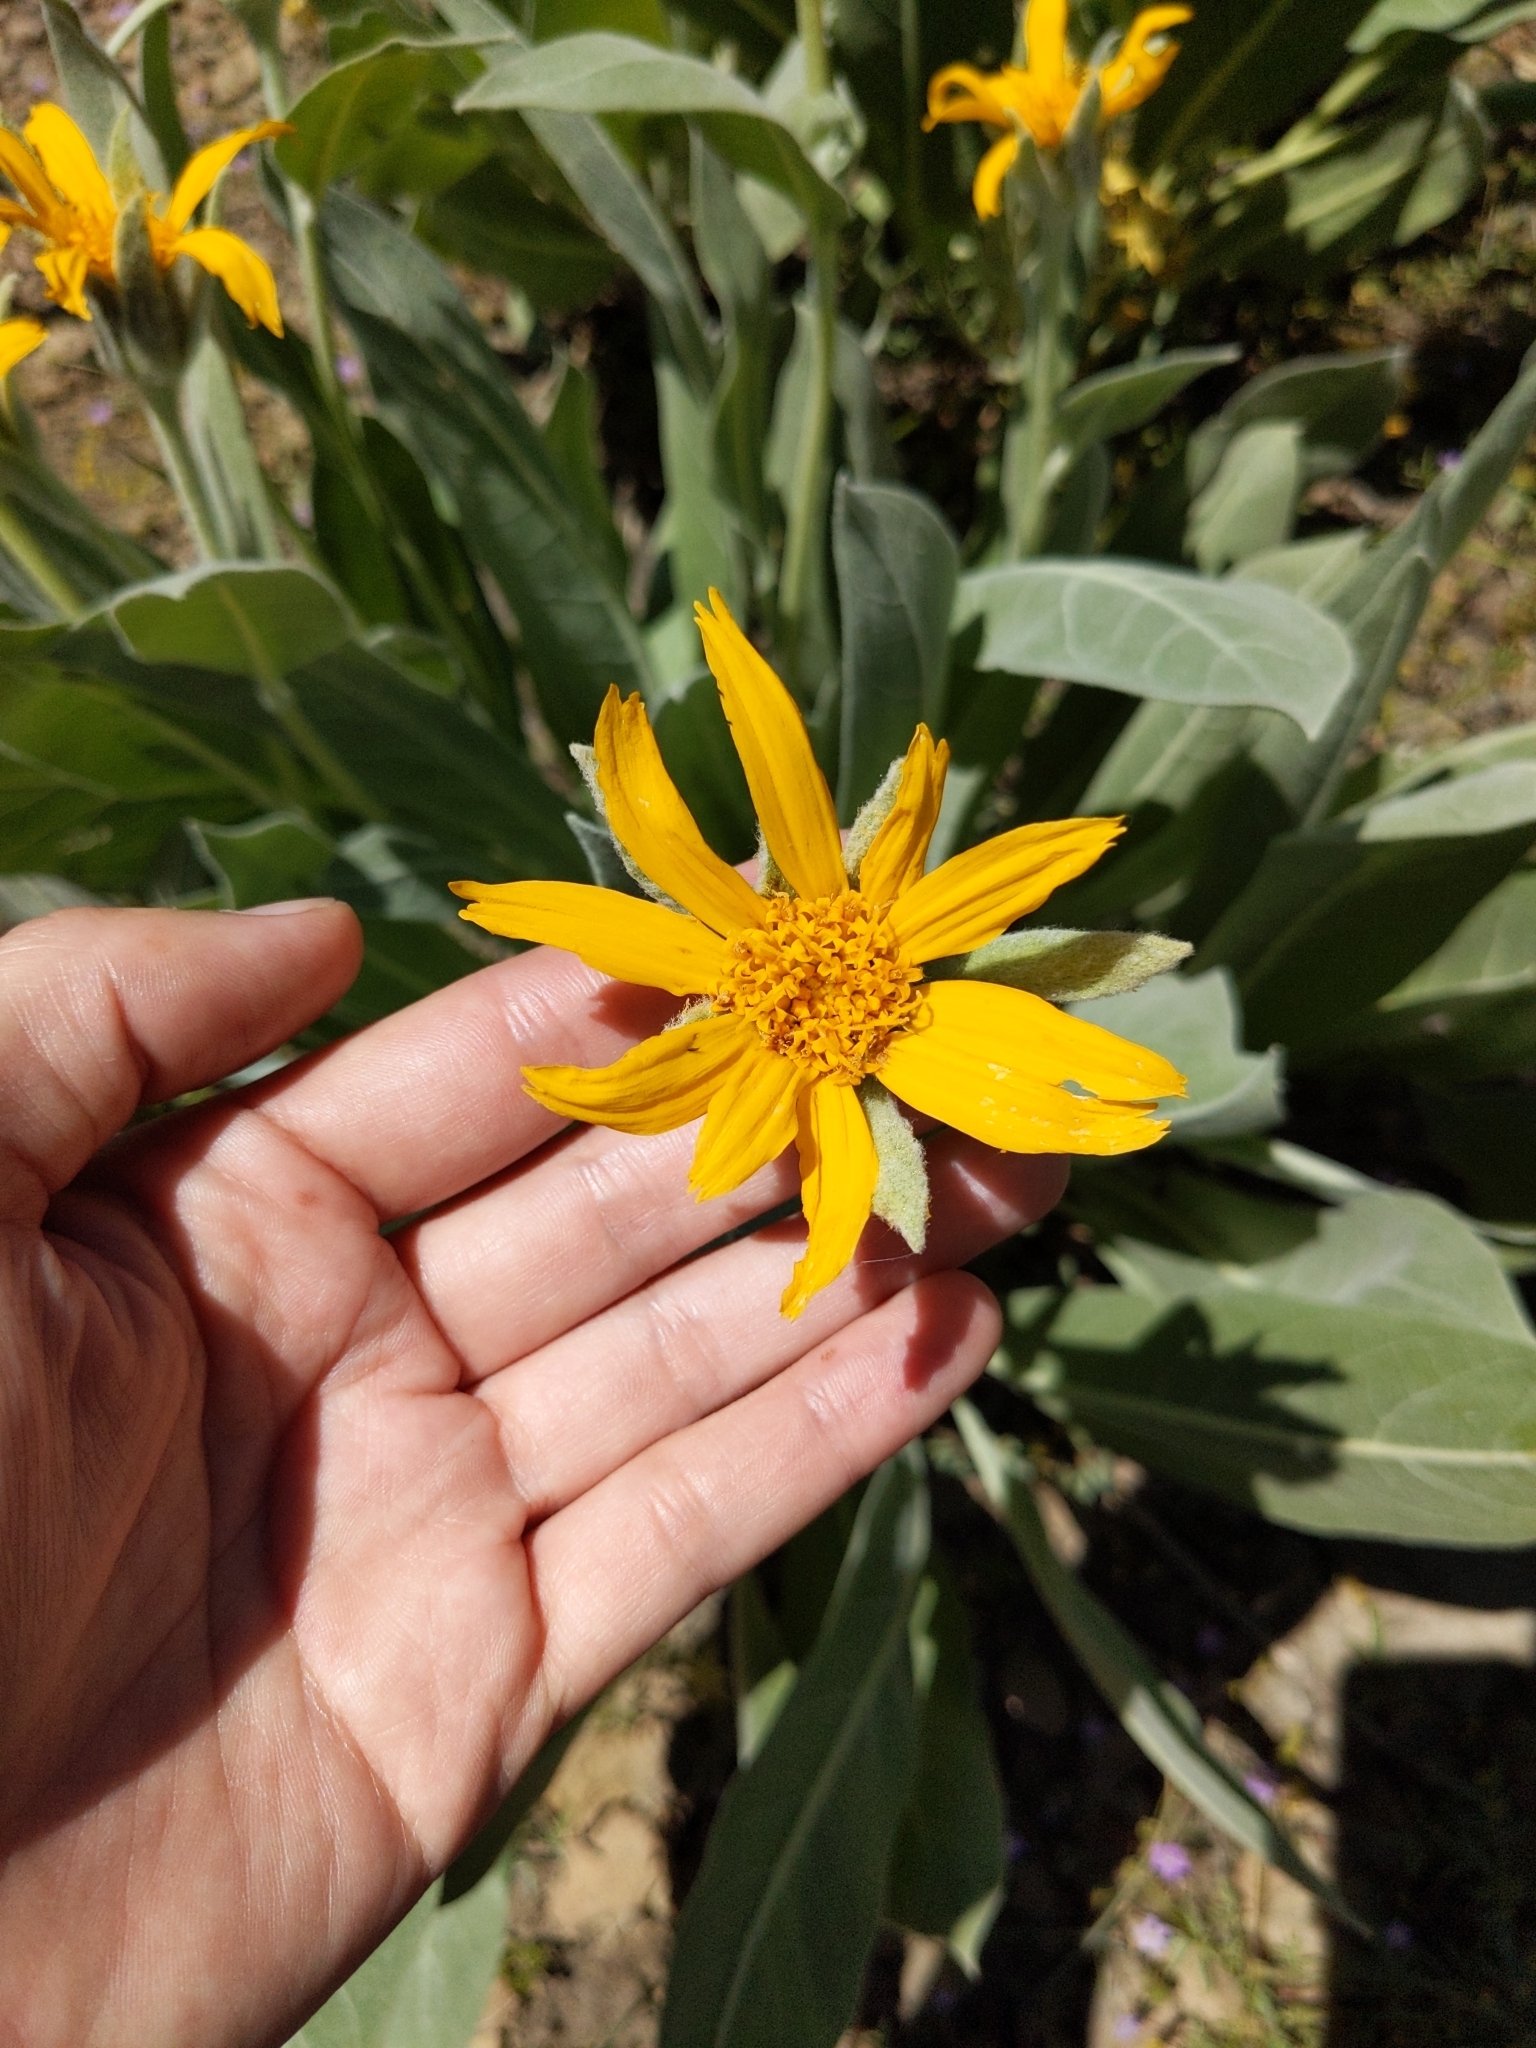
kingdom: Plantae
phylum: Tracheophyta
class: Magnoliopsida
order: Asterales
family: Asteraceae
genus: Wyethia
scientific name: Wyethia mollis
